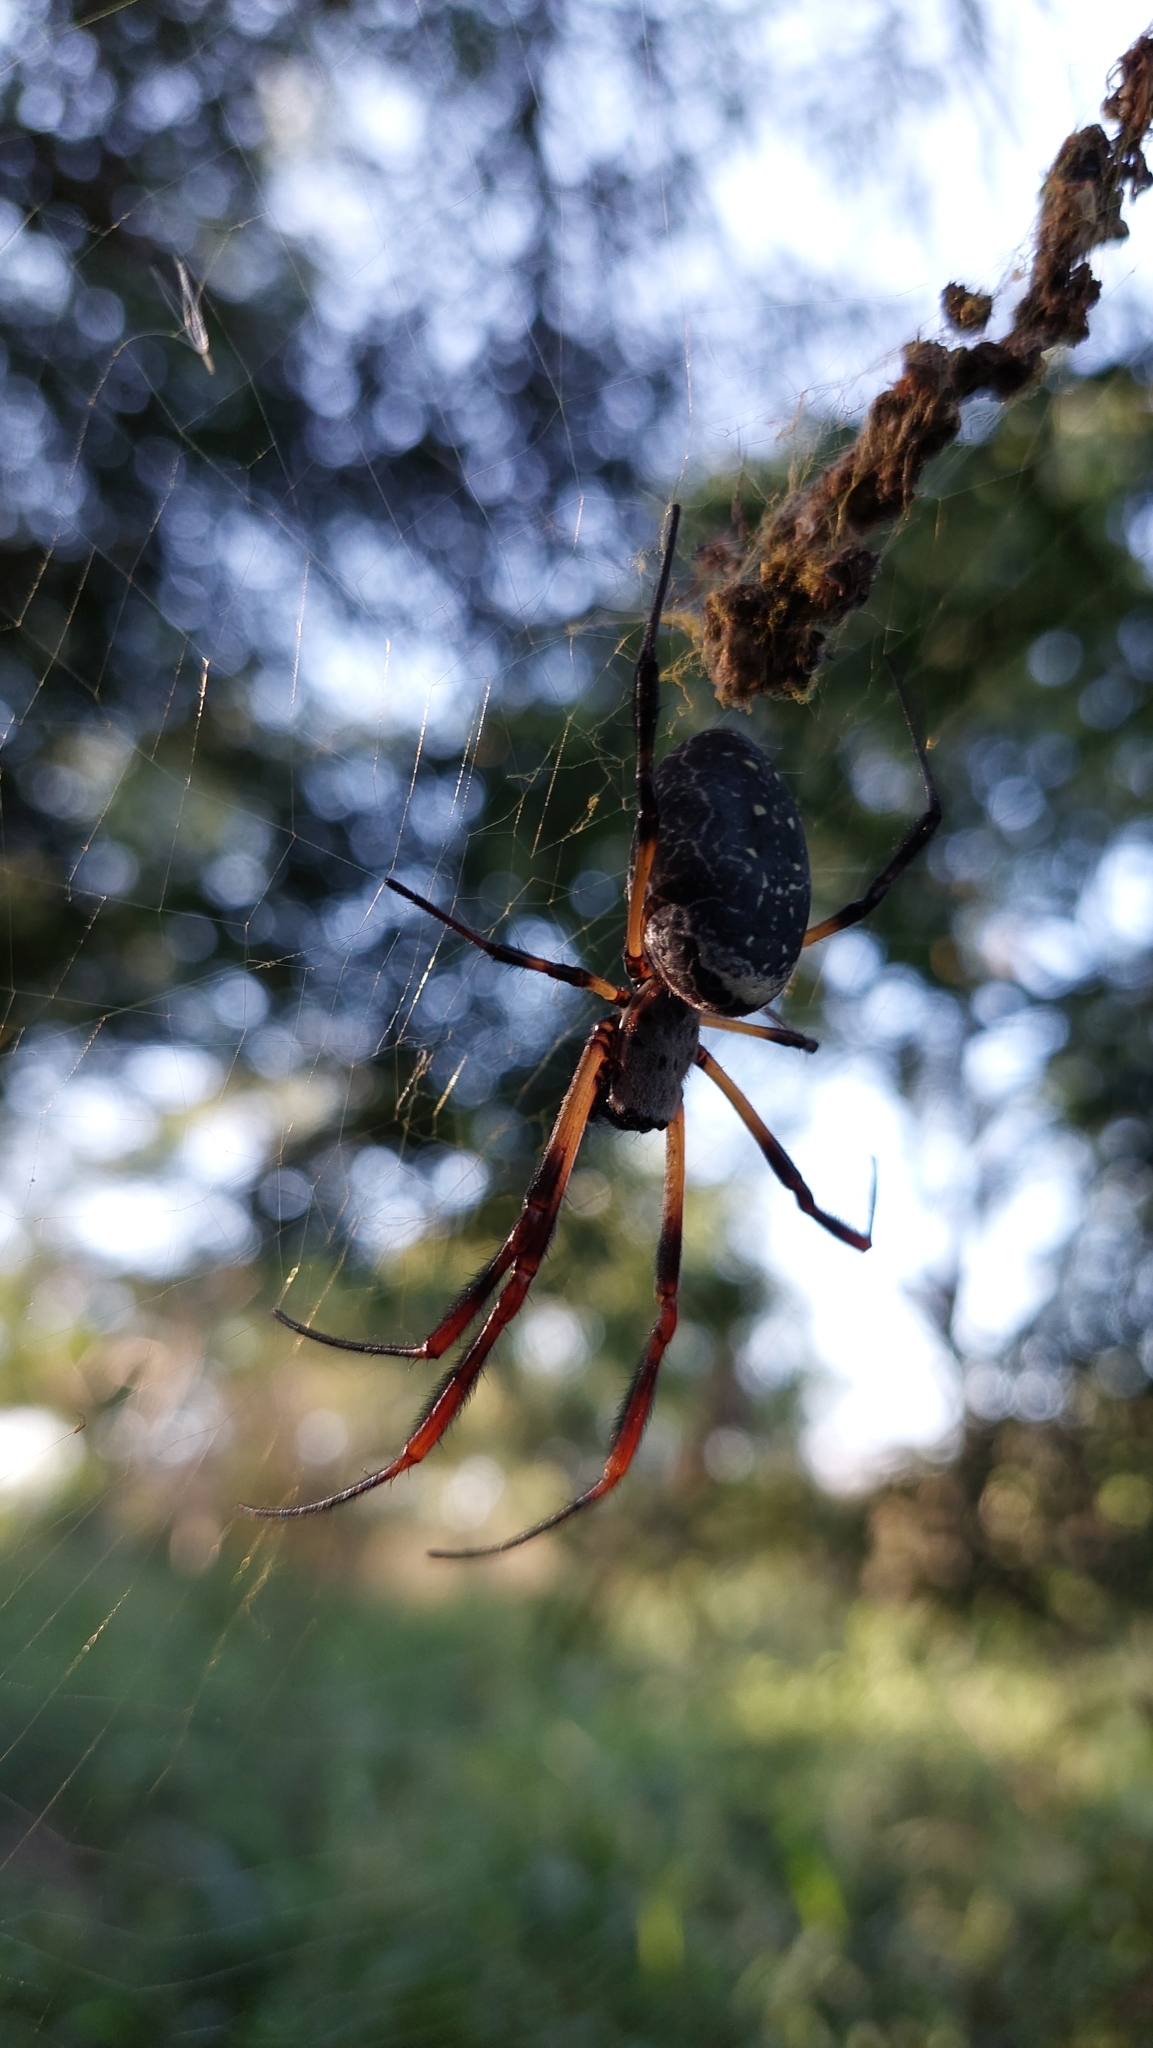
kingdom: Animalia
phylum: Arthropoda
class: Arachnida
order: Araneae
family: Araneidae
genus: Trichonephila
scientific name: Trichonephila sexpunctata
